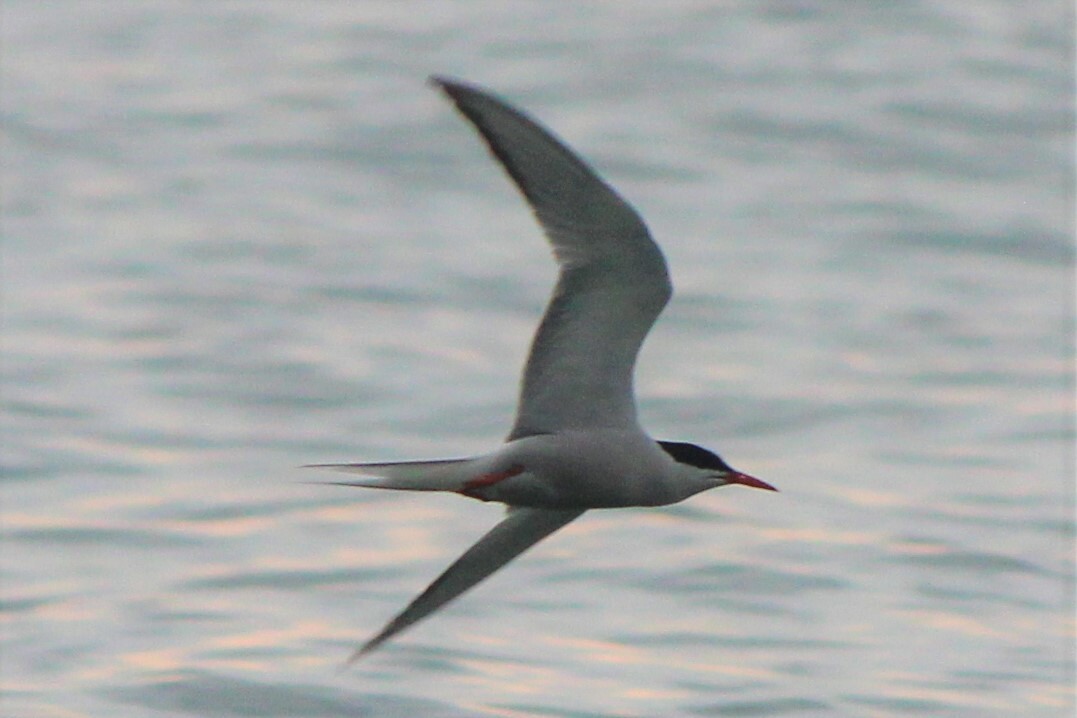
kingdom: Animalia
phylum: Chordata
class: Aves
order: Charadriiformes
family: Laridae
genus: Sterna
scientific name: Sterna hirundo
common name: Common tern
